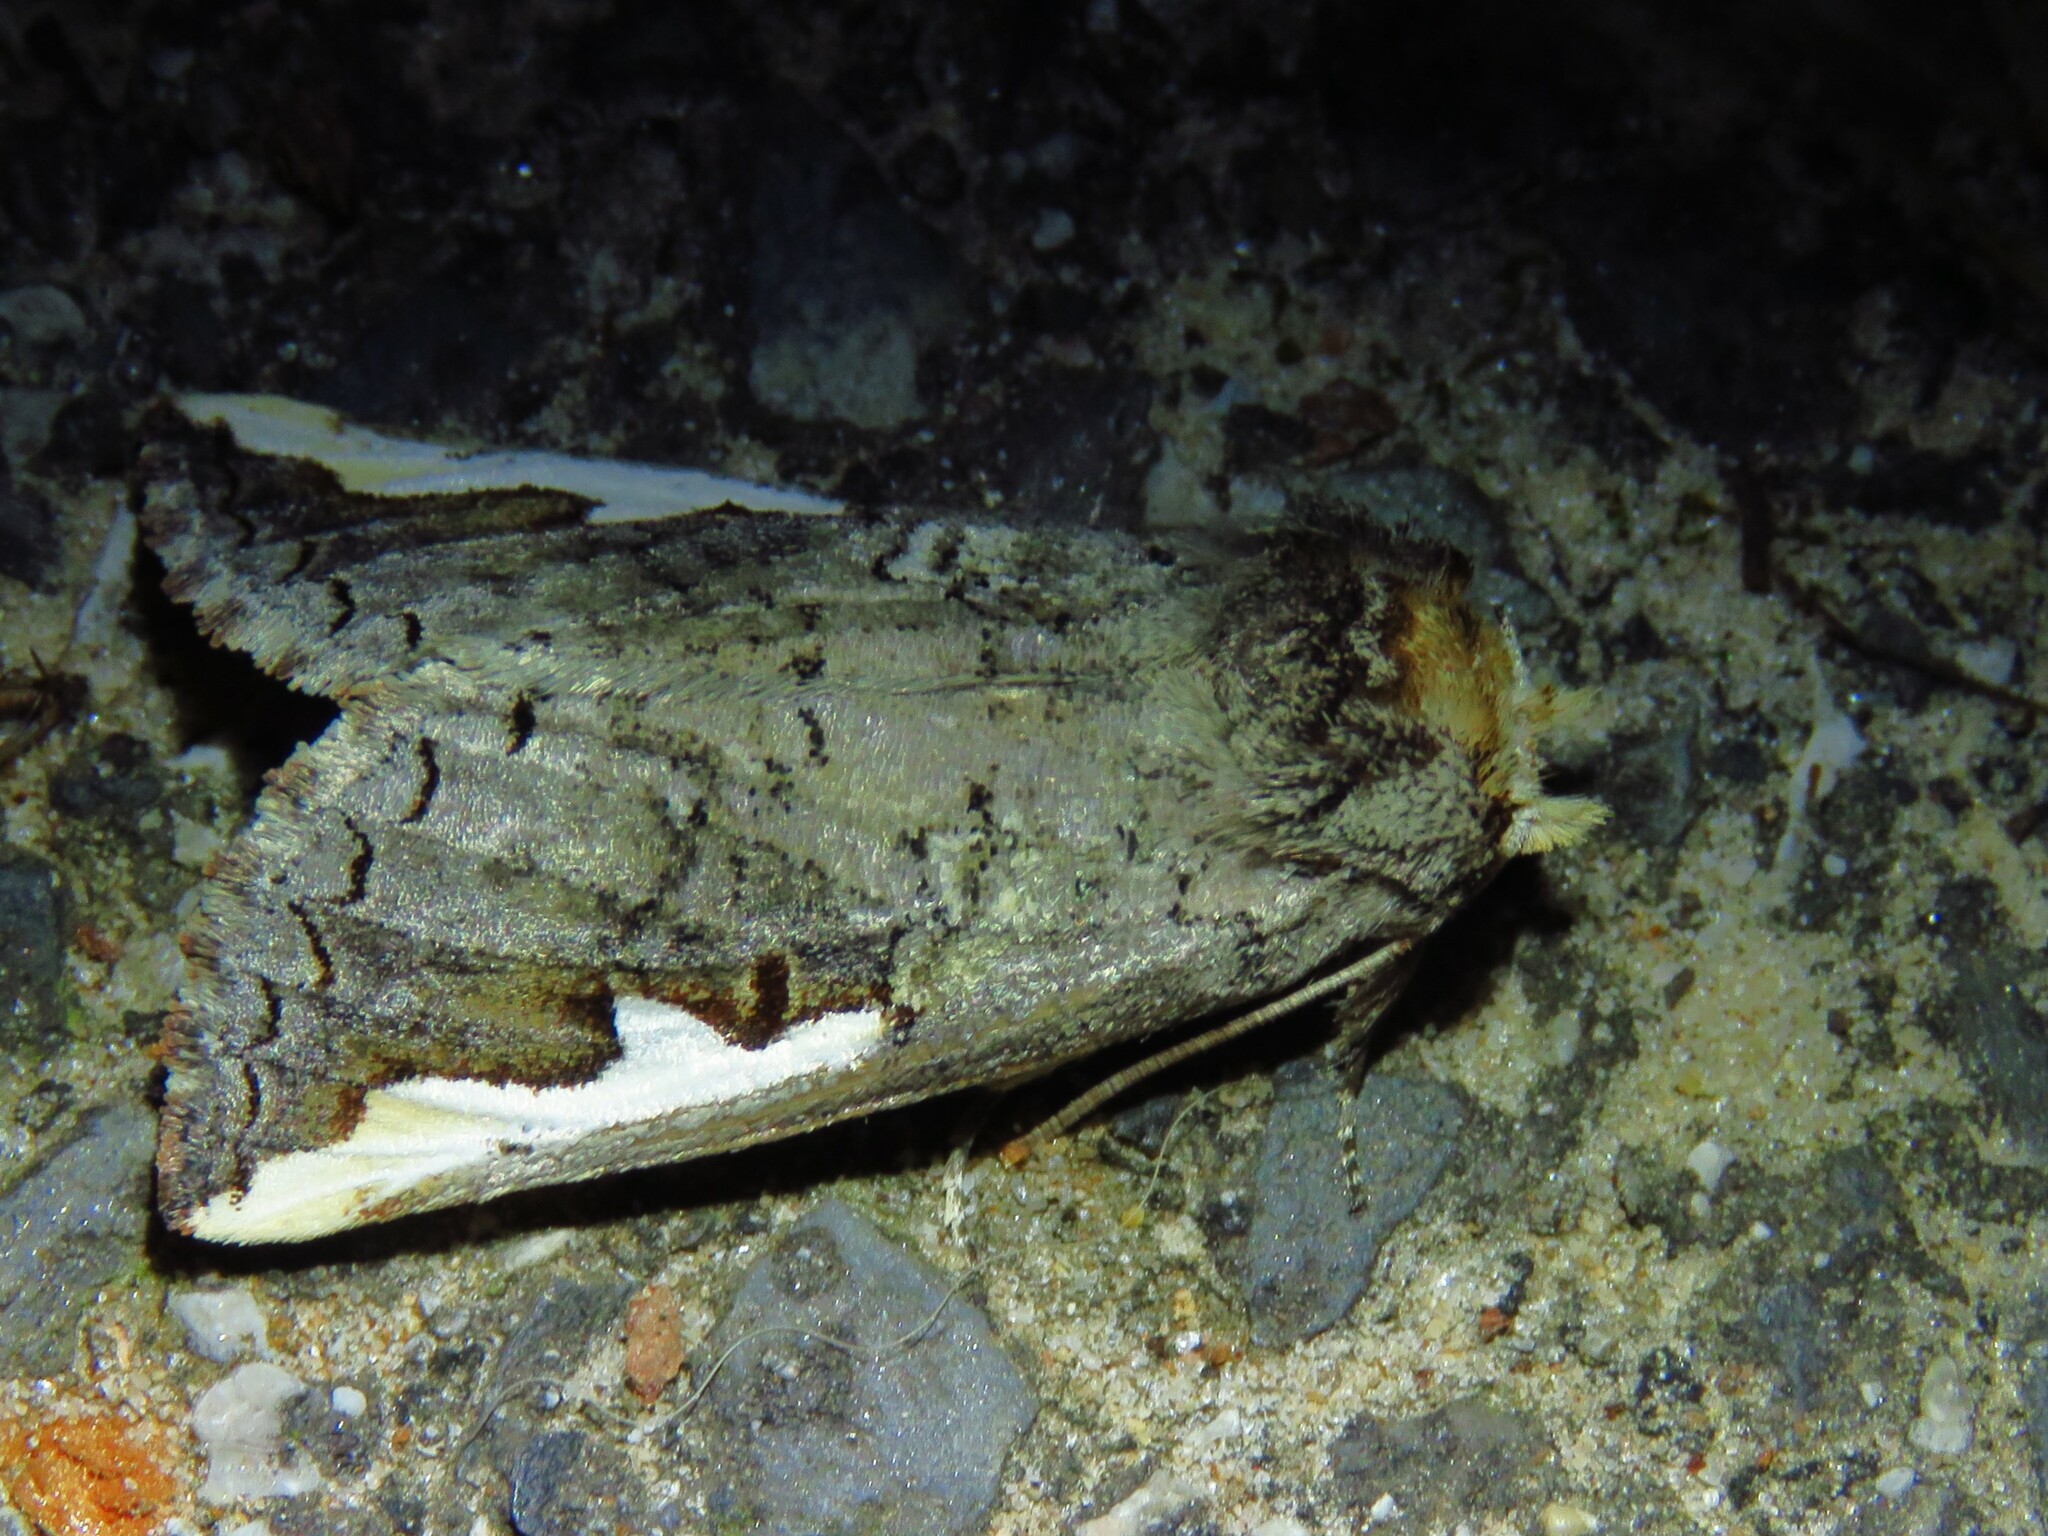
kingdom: Animalia
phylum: Arthropoda
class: Insecta
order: Lepidoptera
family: Notodontidae
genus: Symmerista
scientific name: Symmerista albifrons
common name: White-headed prominent
